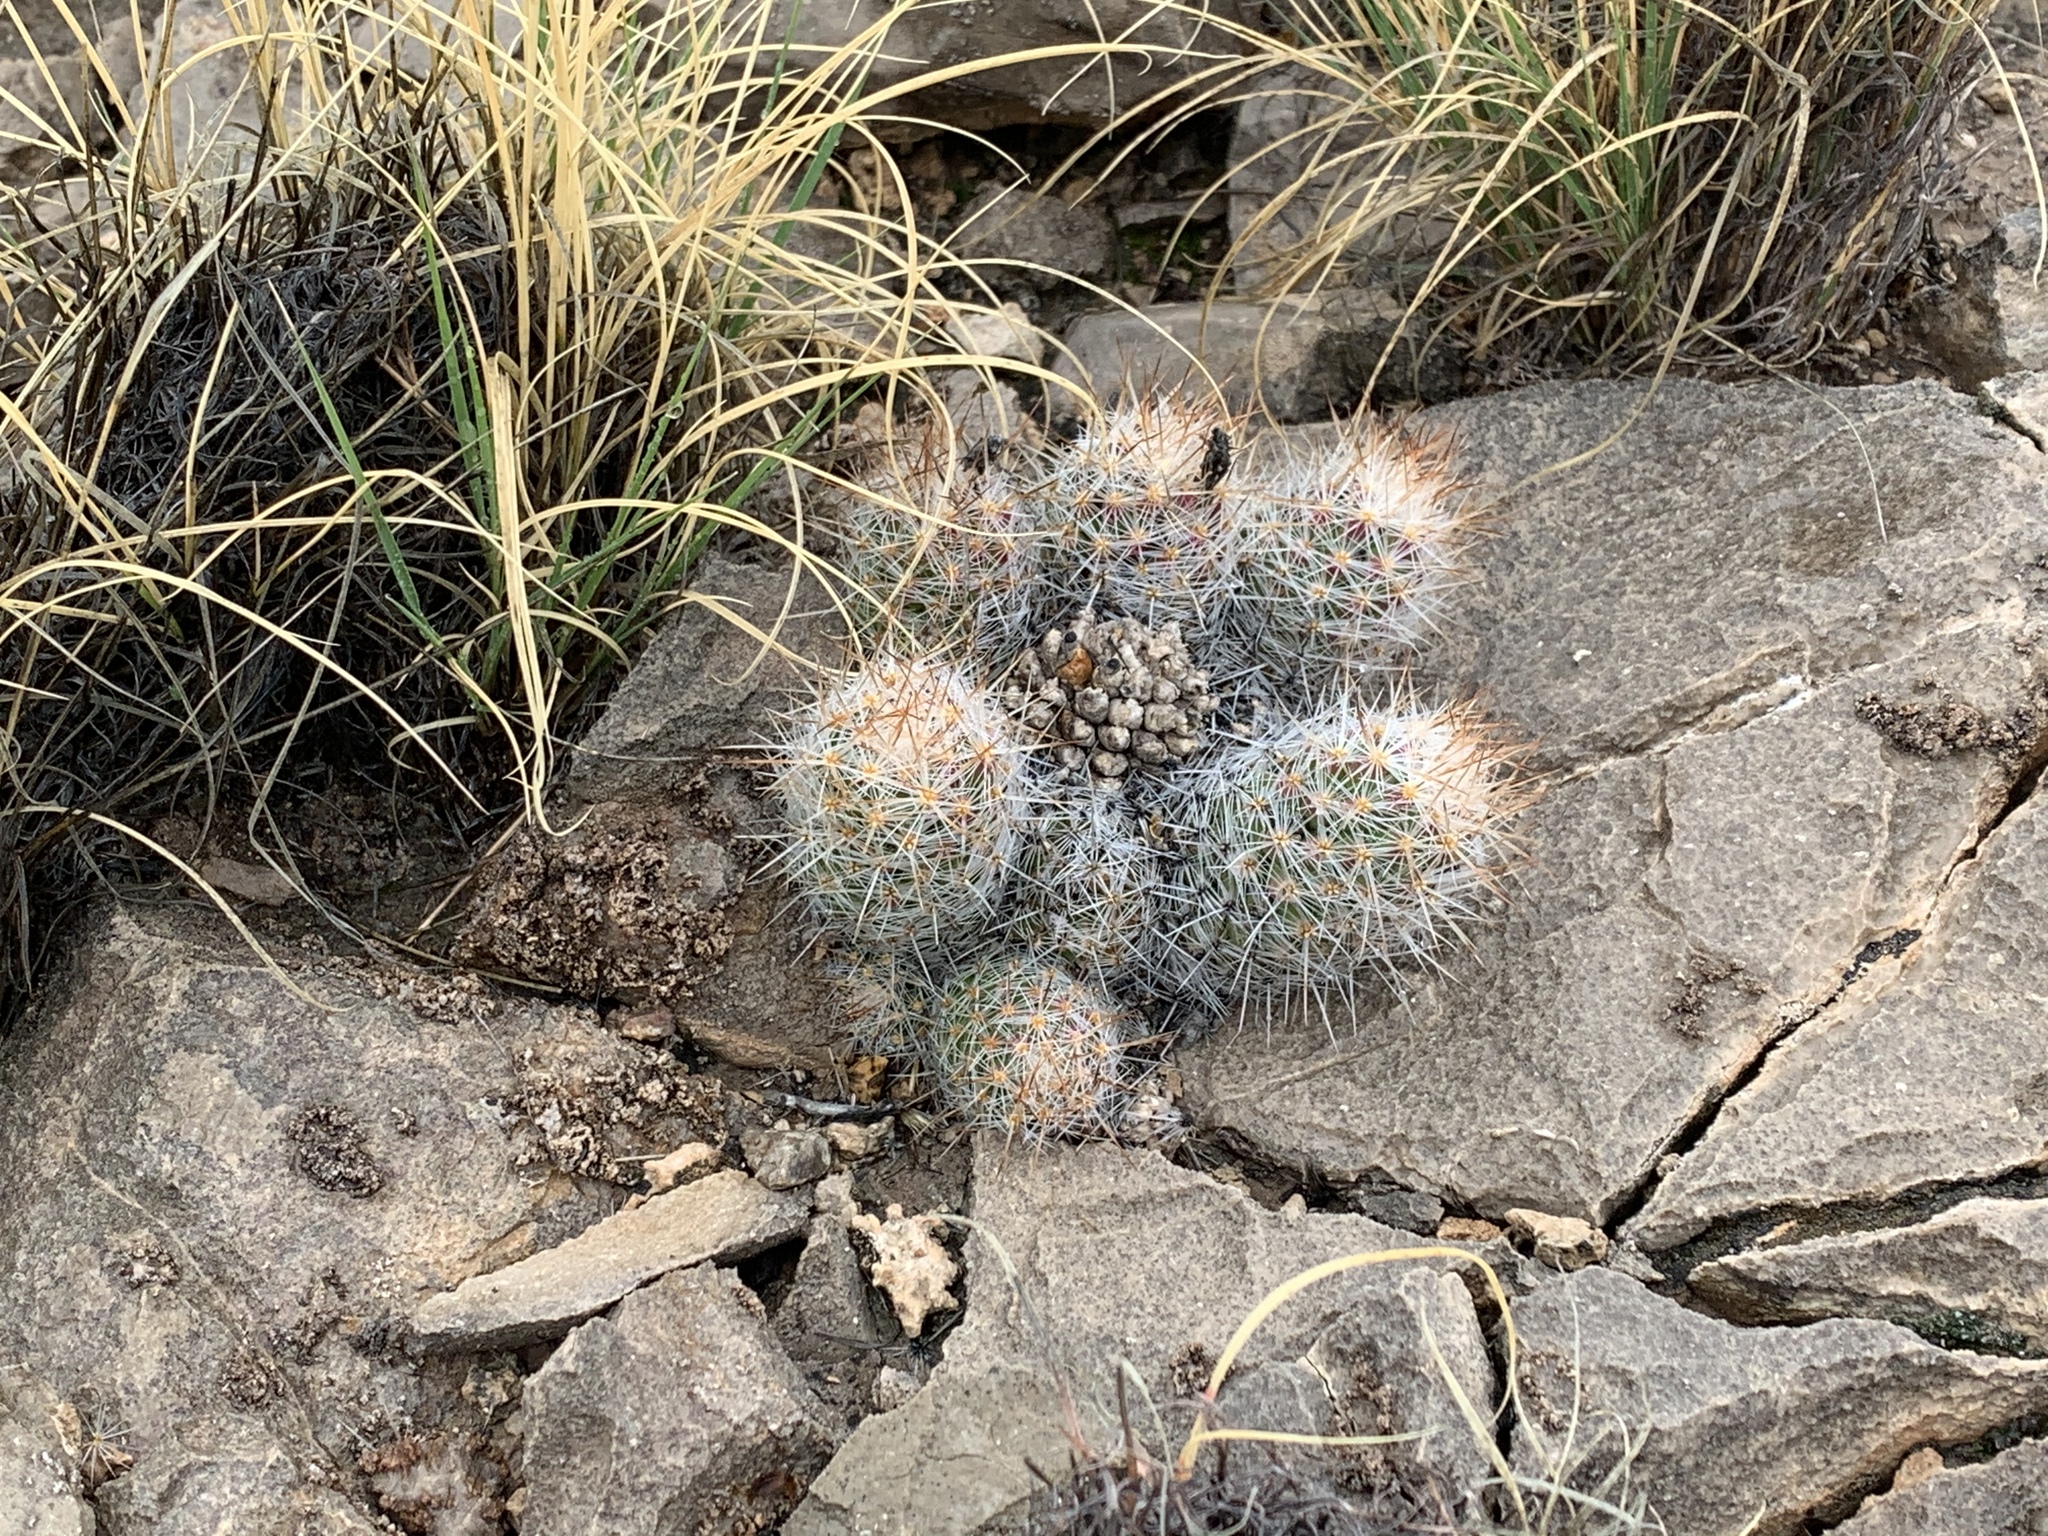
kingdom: Plantae
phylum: Tracheophyta
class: Magnoliopsida
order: Caryophyllales
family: Cactaceae
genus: Pelecyphora
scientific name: Pelecyphora tuberculosa
